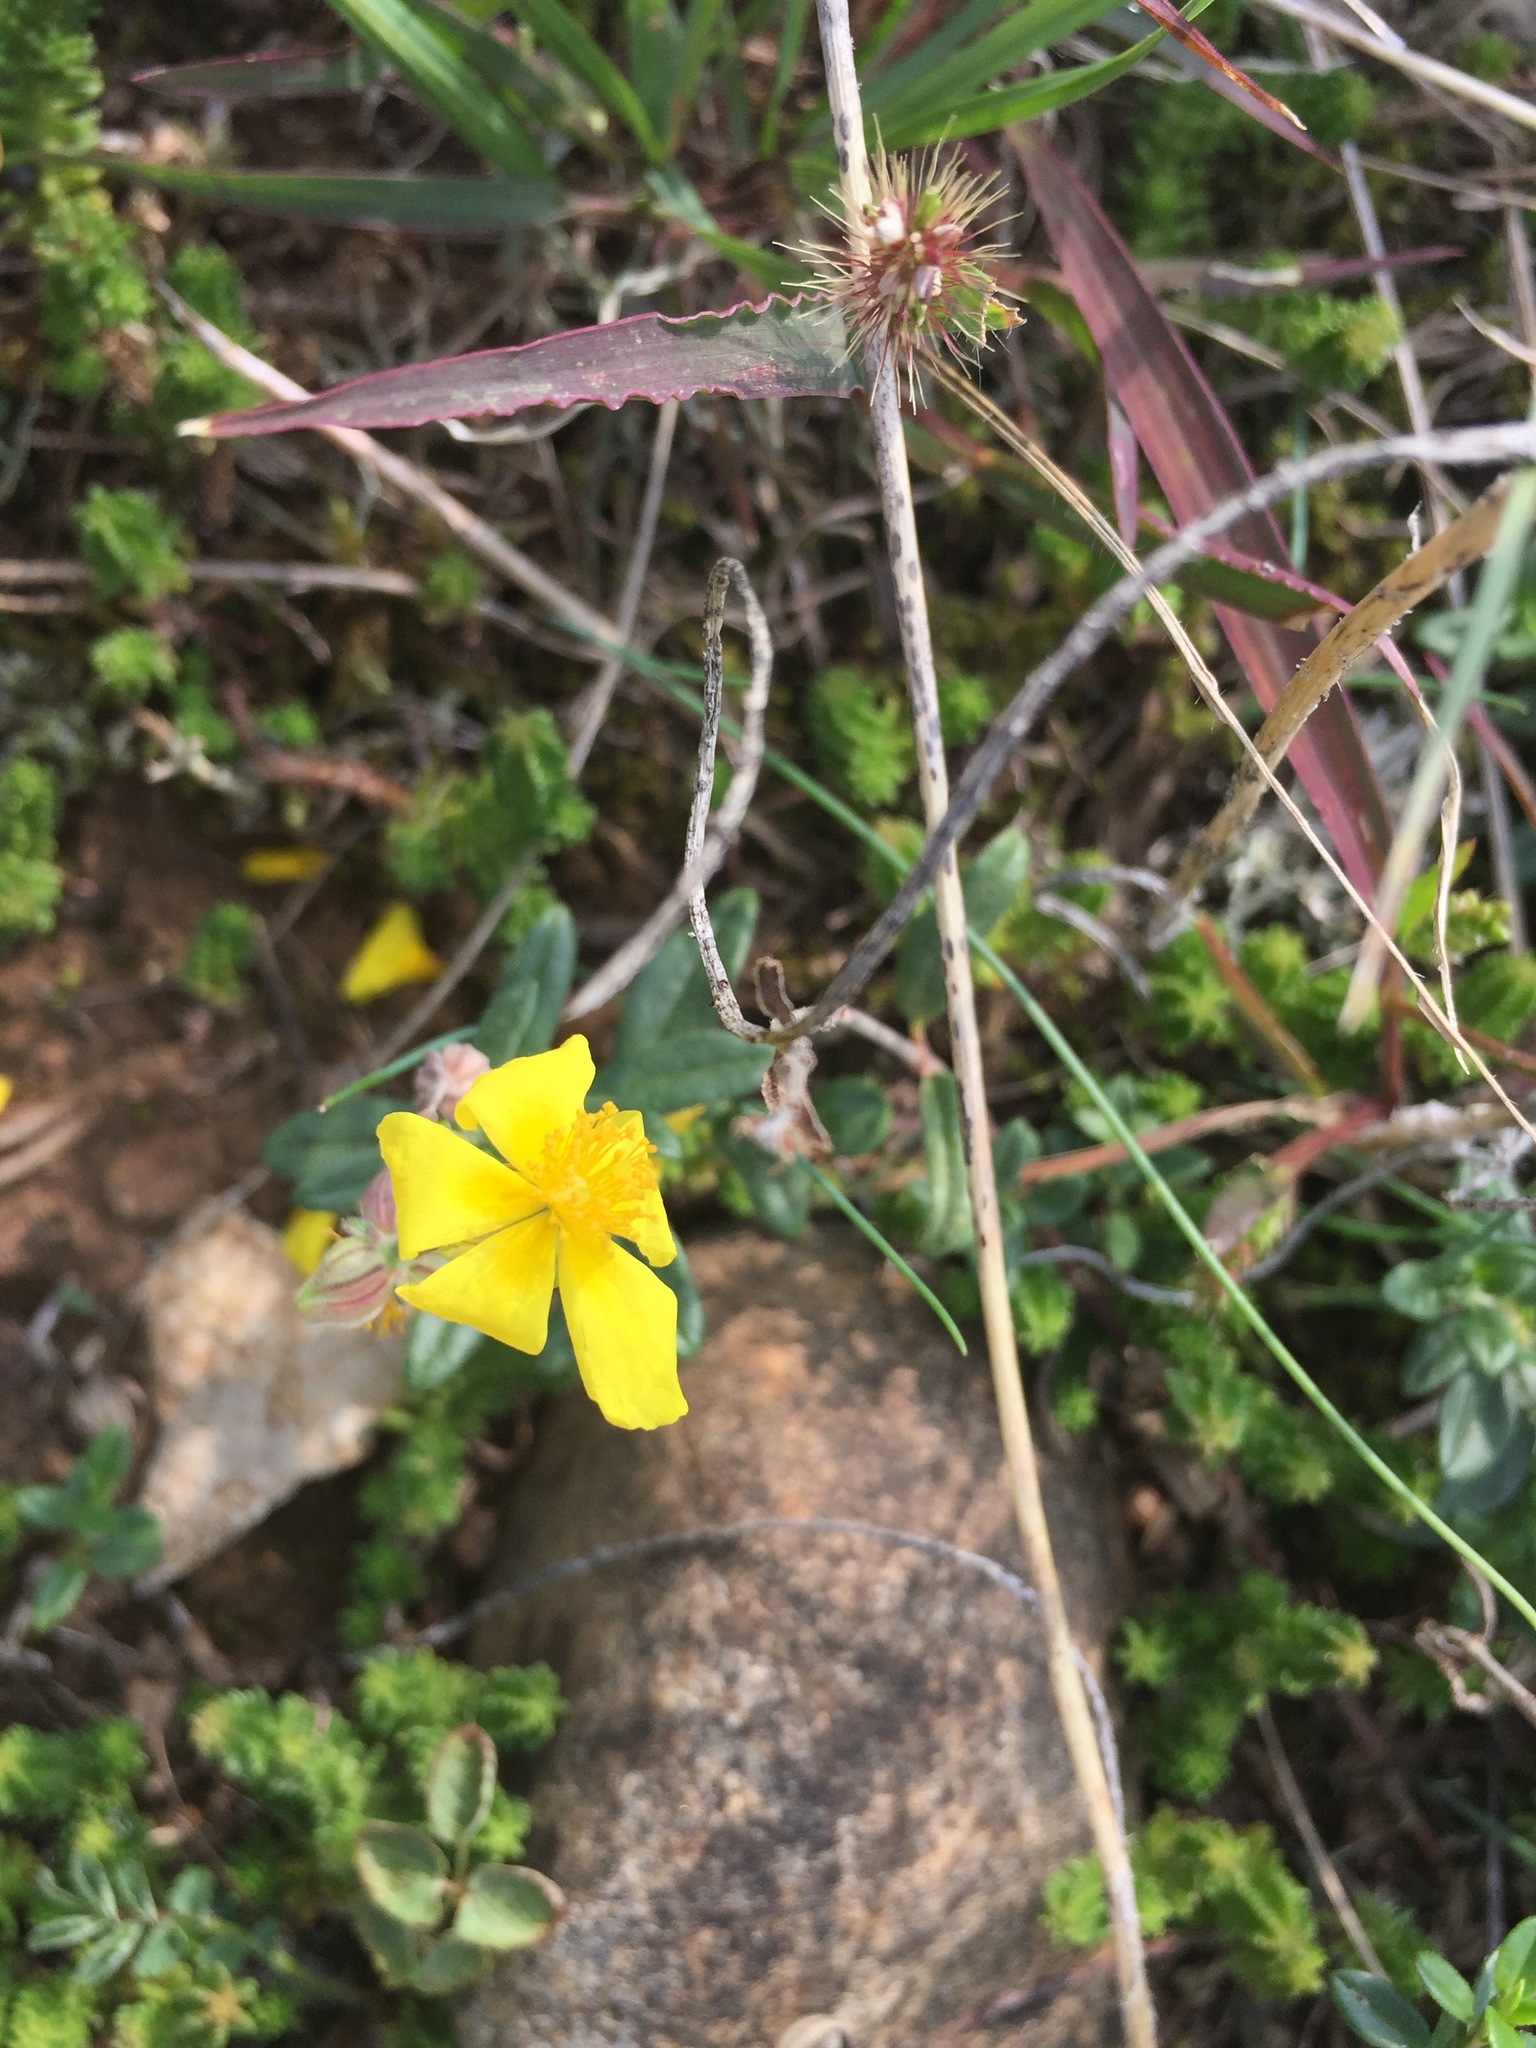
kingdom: Plantae
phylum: Tracheophyta
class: Magnoliopsida
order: Malvales
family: Cistaceae
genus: Helianthemum
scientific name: Helianthemum nummularium
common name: Common rock-rose
